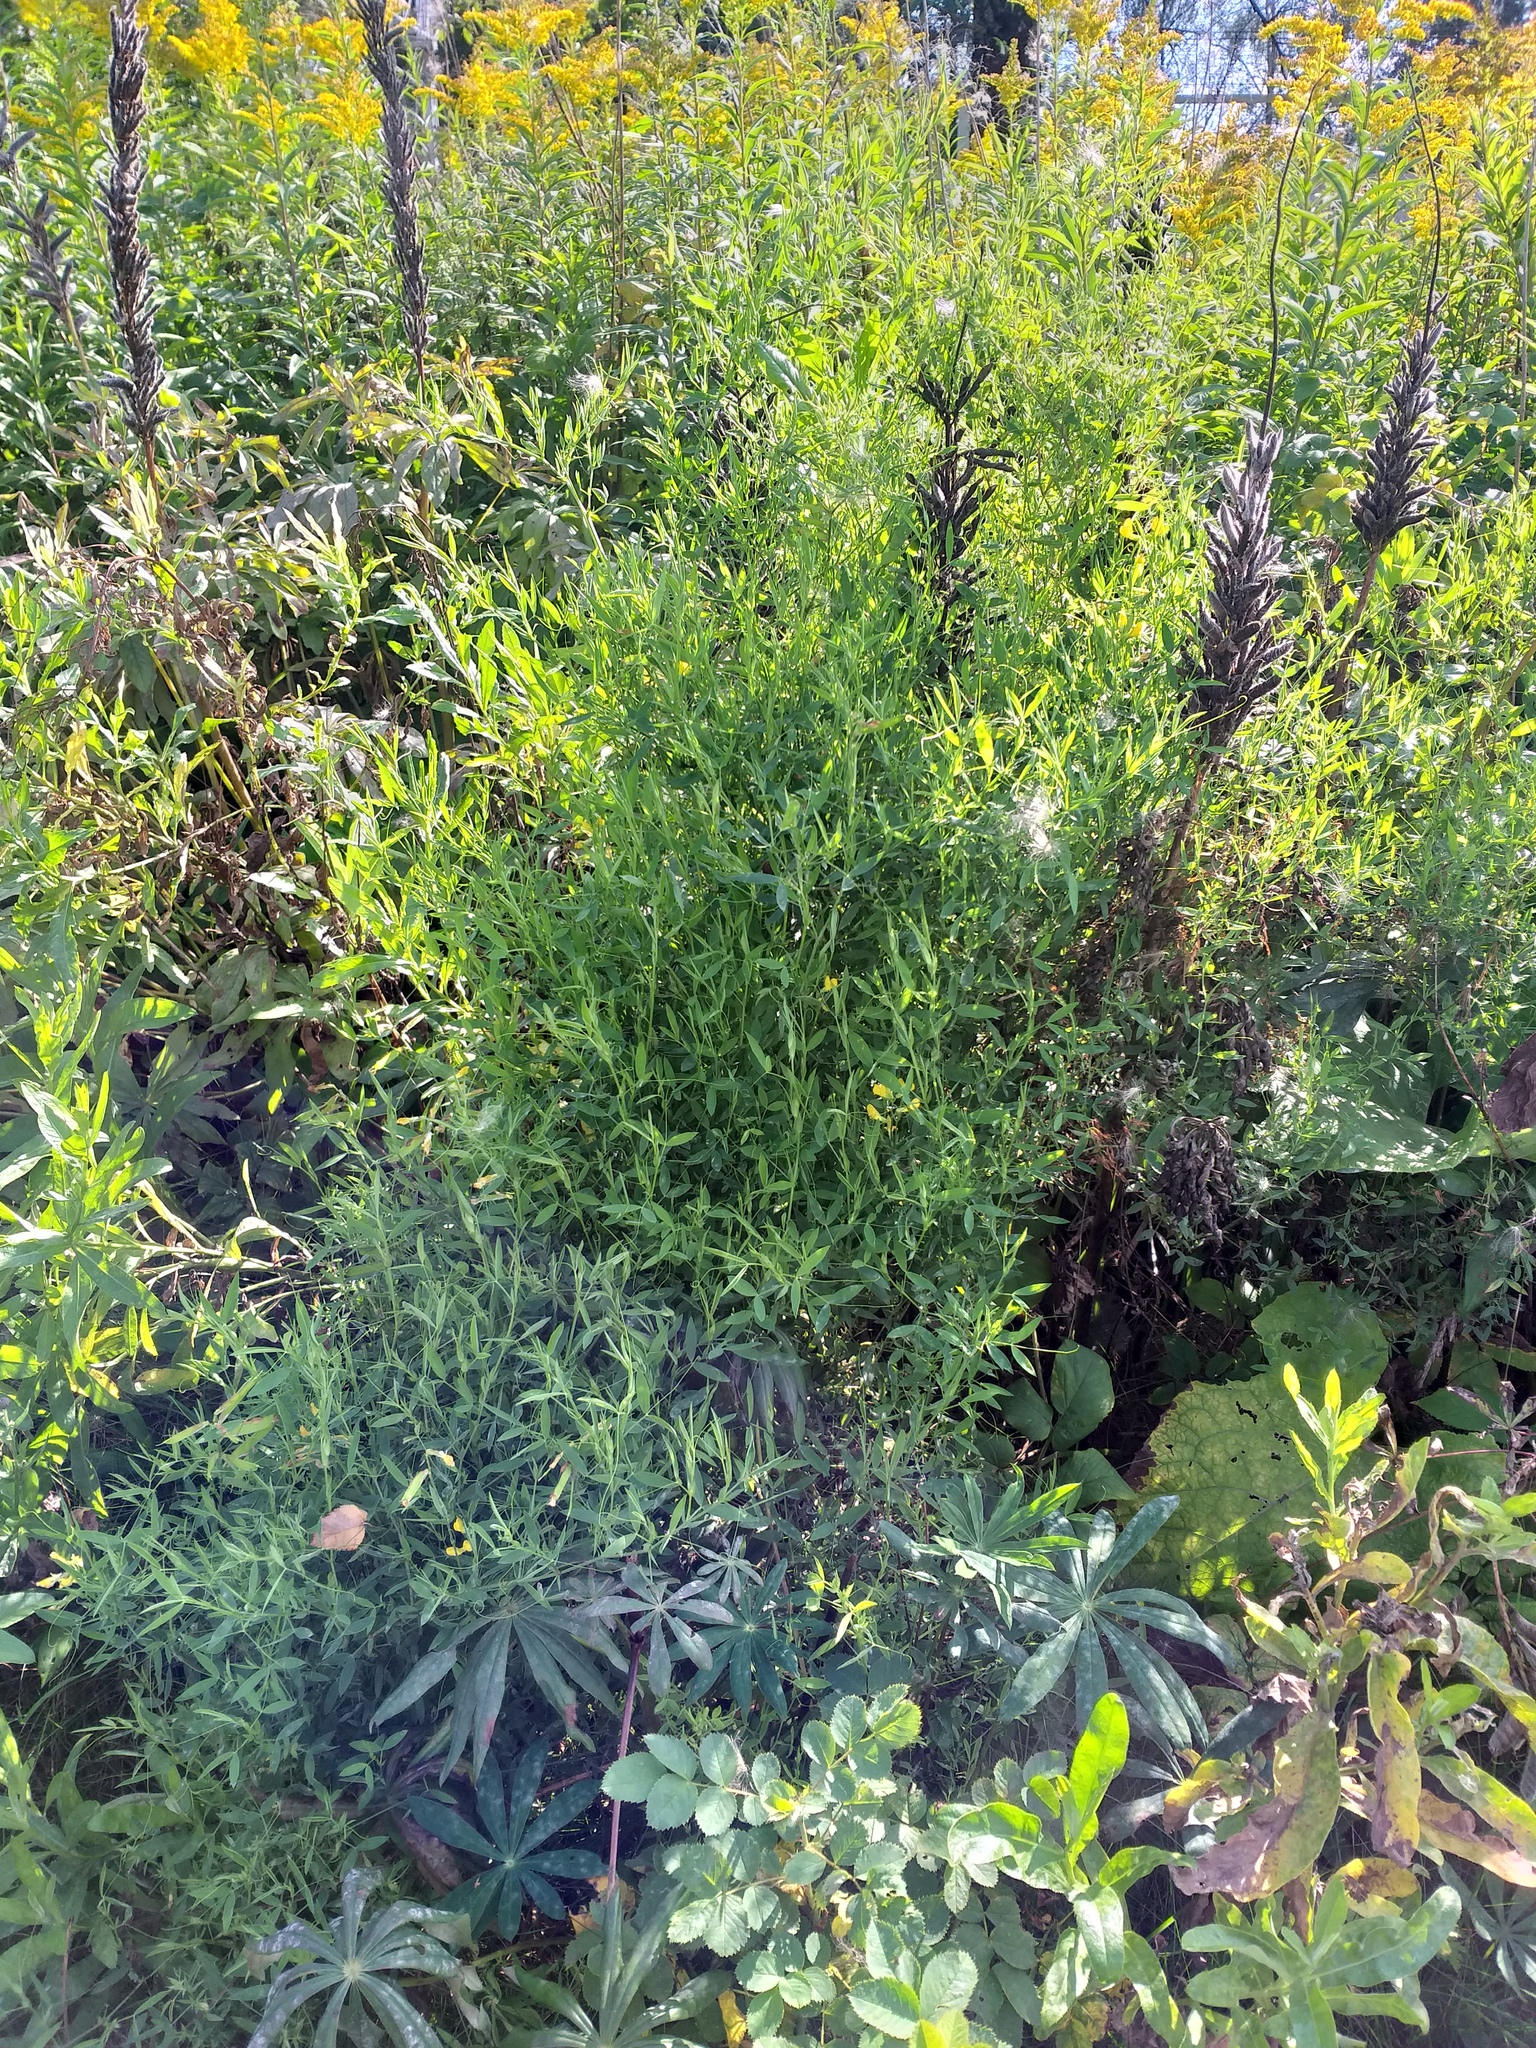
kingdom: Plantae
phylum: Tracheophyta
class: Magnoliopsida
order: Fabales
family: Fabaceae
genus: Lathyrus
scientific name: Lathyrus pratensis
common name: Meadow vetchling
